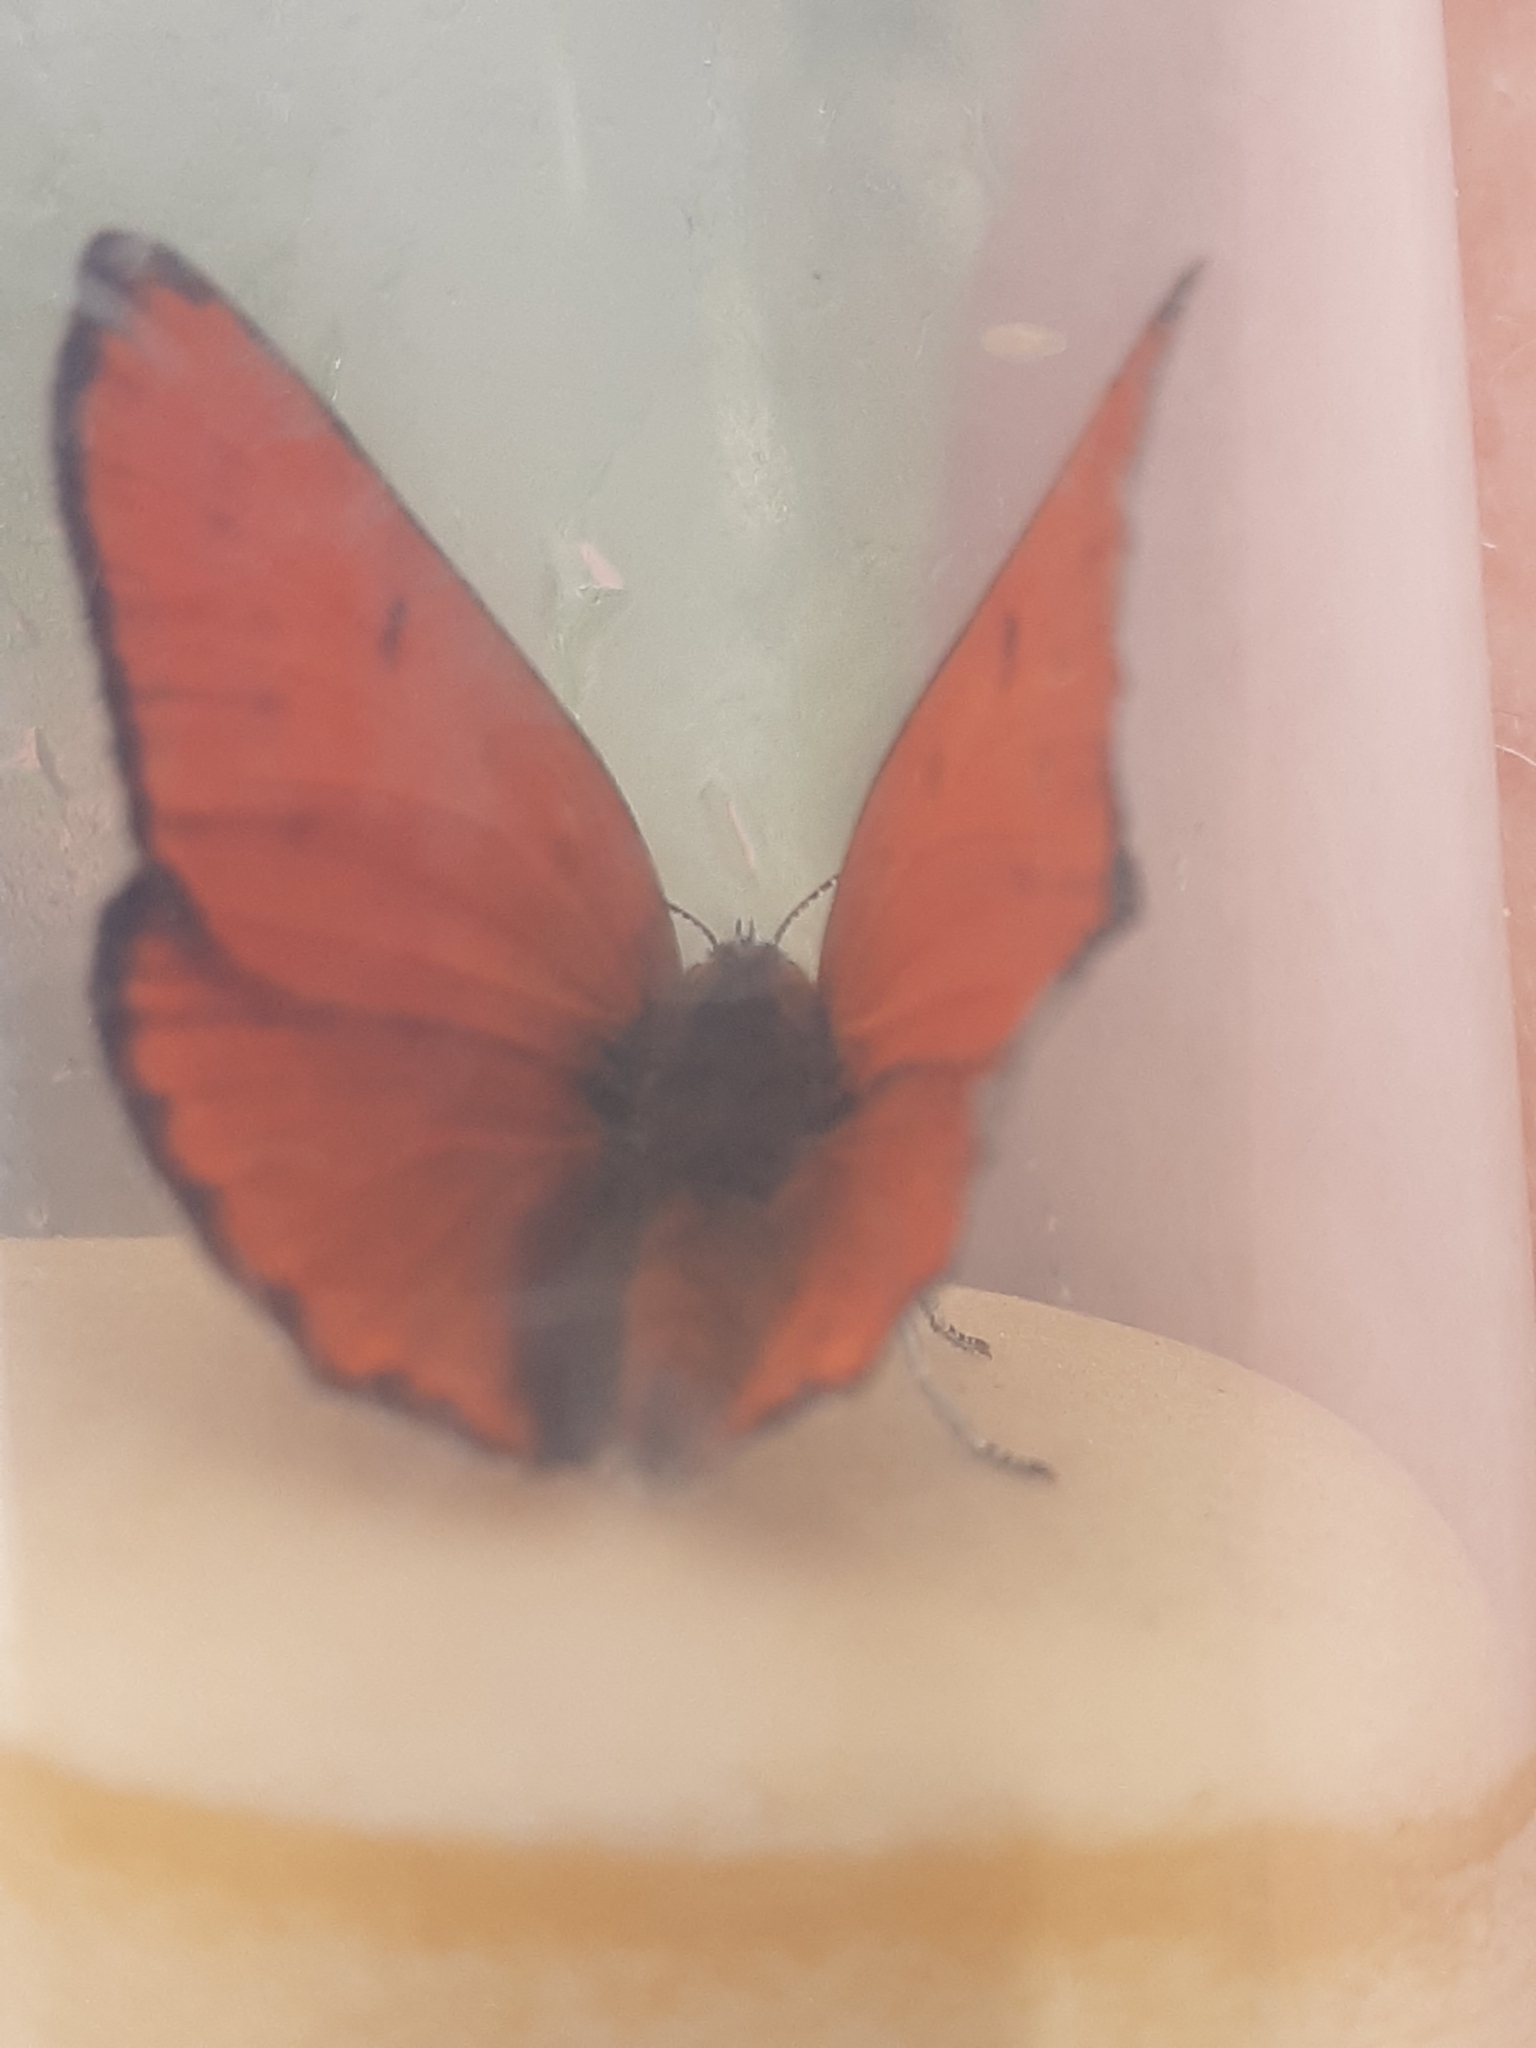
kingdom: Animalia
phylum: Arthropoda
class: Insecta
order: Lepidoptera
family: Lycaenidae
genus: Lycaena
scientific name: Lycaena dispar
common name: Large copper
